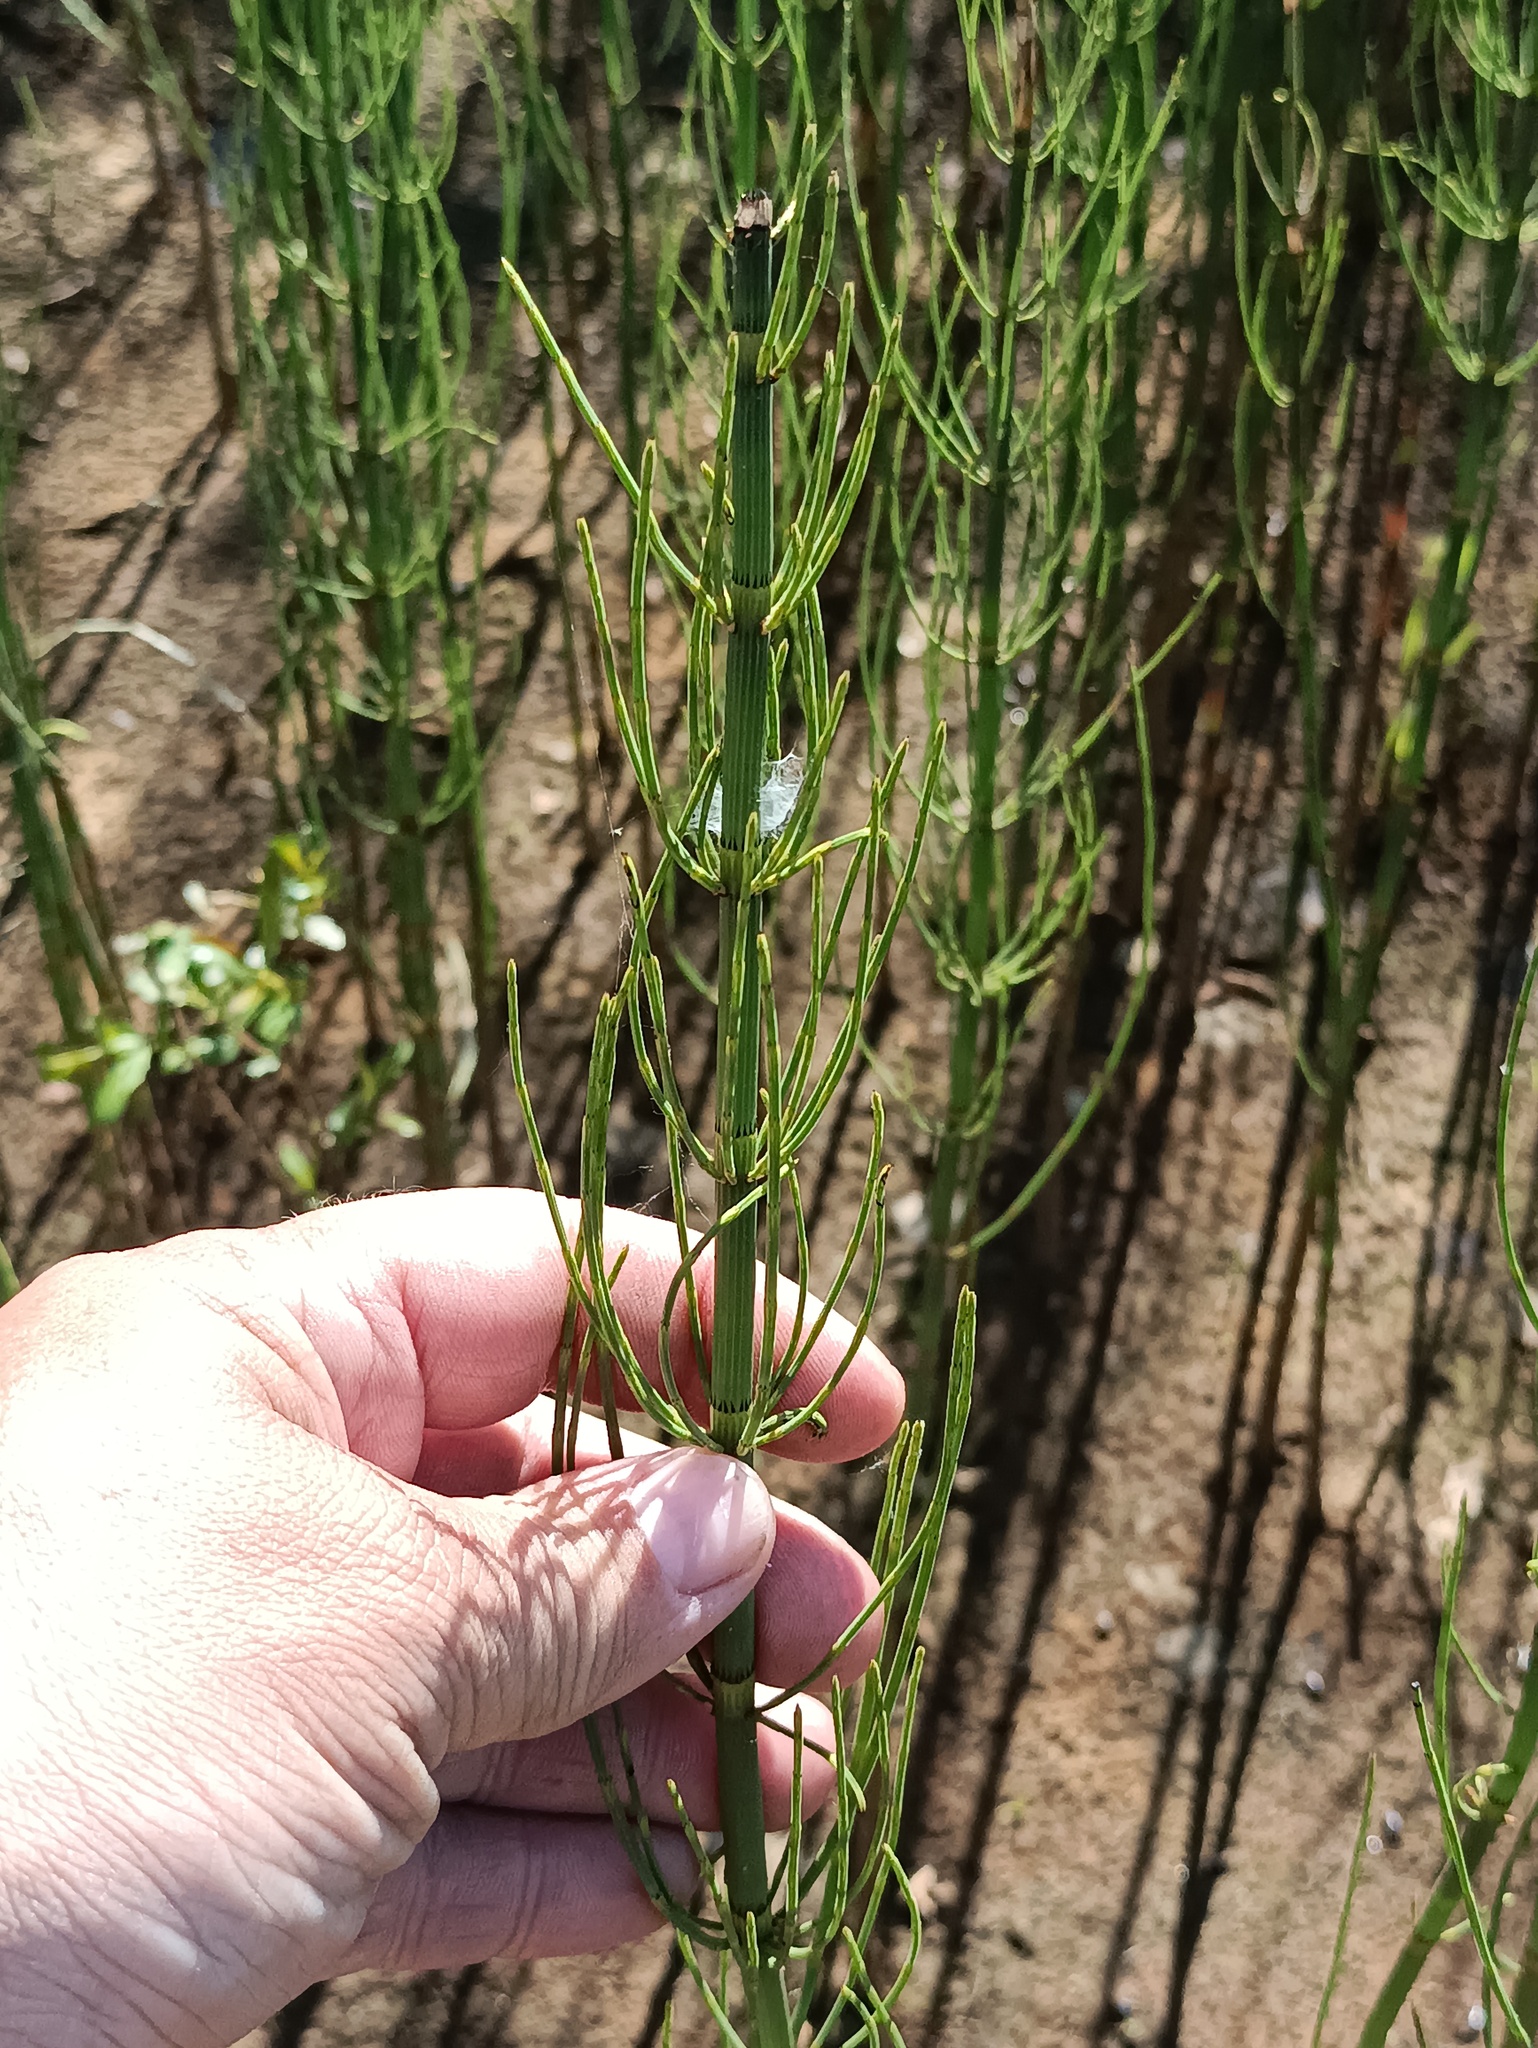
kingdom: Plantae
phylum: Tracheophyta
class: Polypodiopsida
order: Equisetales
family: Equisetaceae
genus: Equisetum
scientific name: Equisetum fluviatile
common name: Water horsetail
